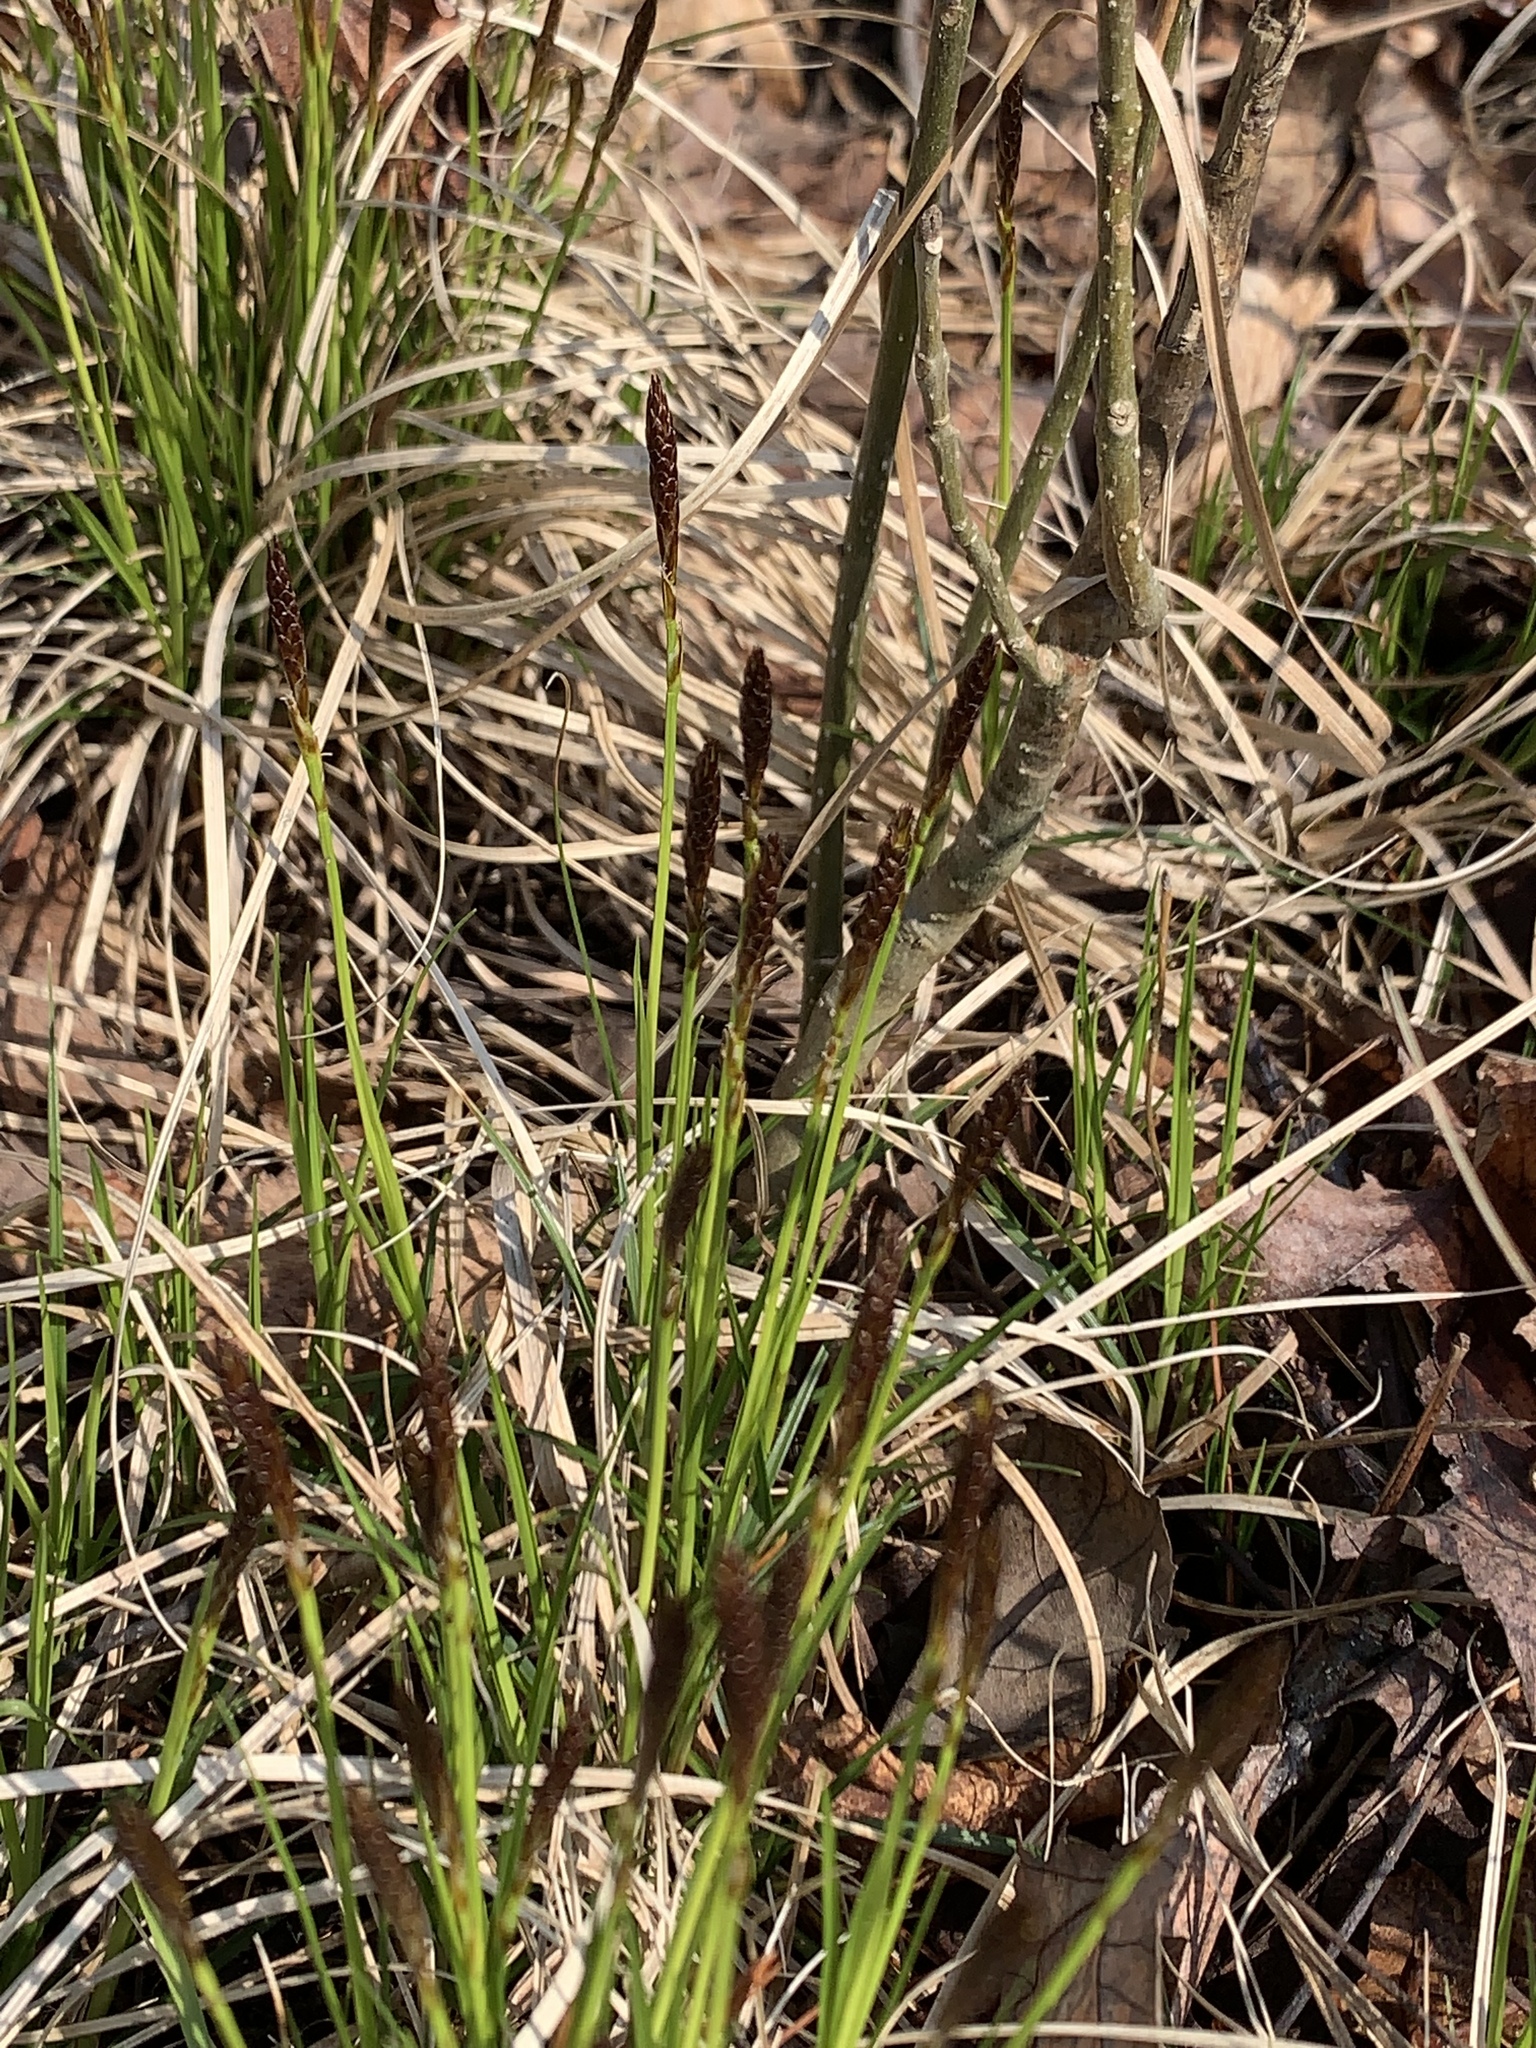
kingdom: Plantae
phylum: Tracheophyta
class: Liliopsida
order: Poales
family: Cyperaceae
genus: Carex
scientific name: Carex pensylvanica
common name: Common oak sedge
